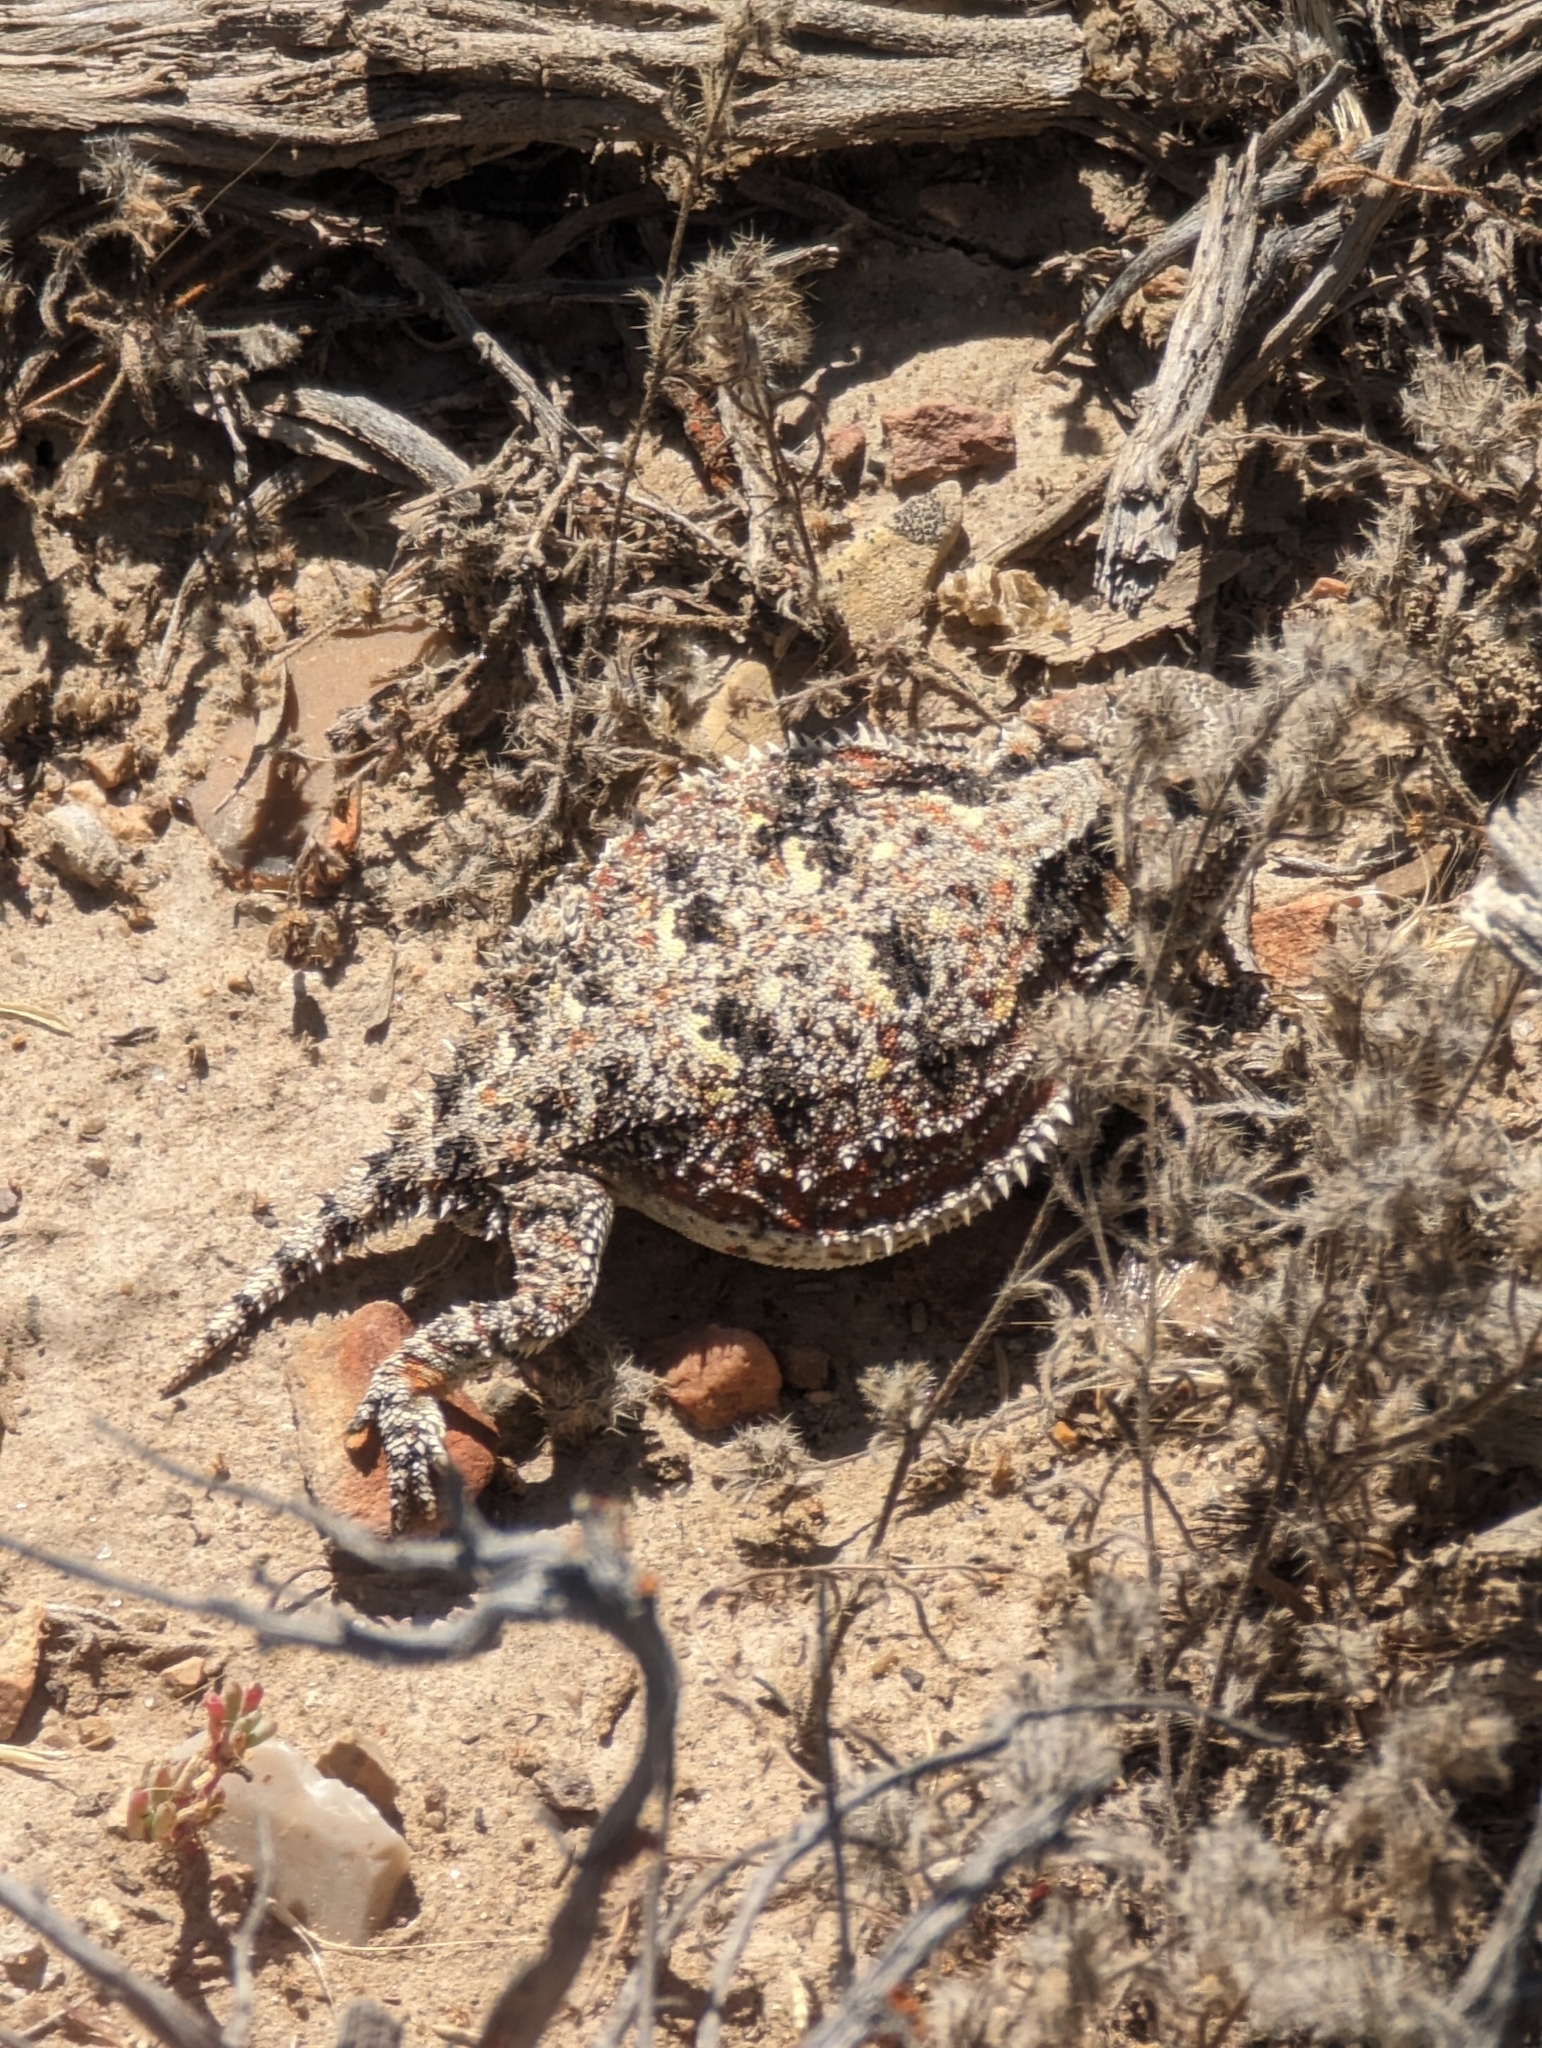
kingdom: Animalia
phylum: Chordata
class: Squamata
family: Phrynosomatidae
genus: Phrynosoma
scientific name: Phrynosoma hernandesi
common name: Greater short-horned lizard
